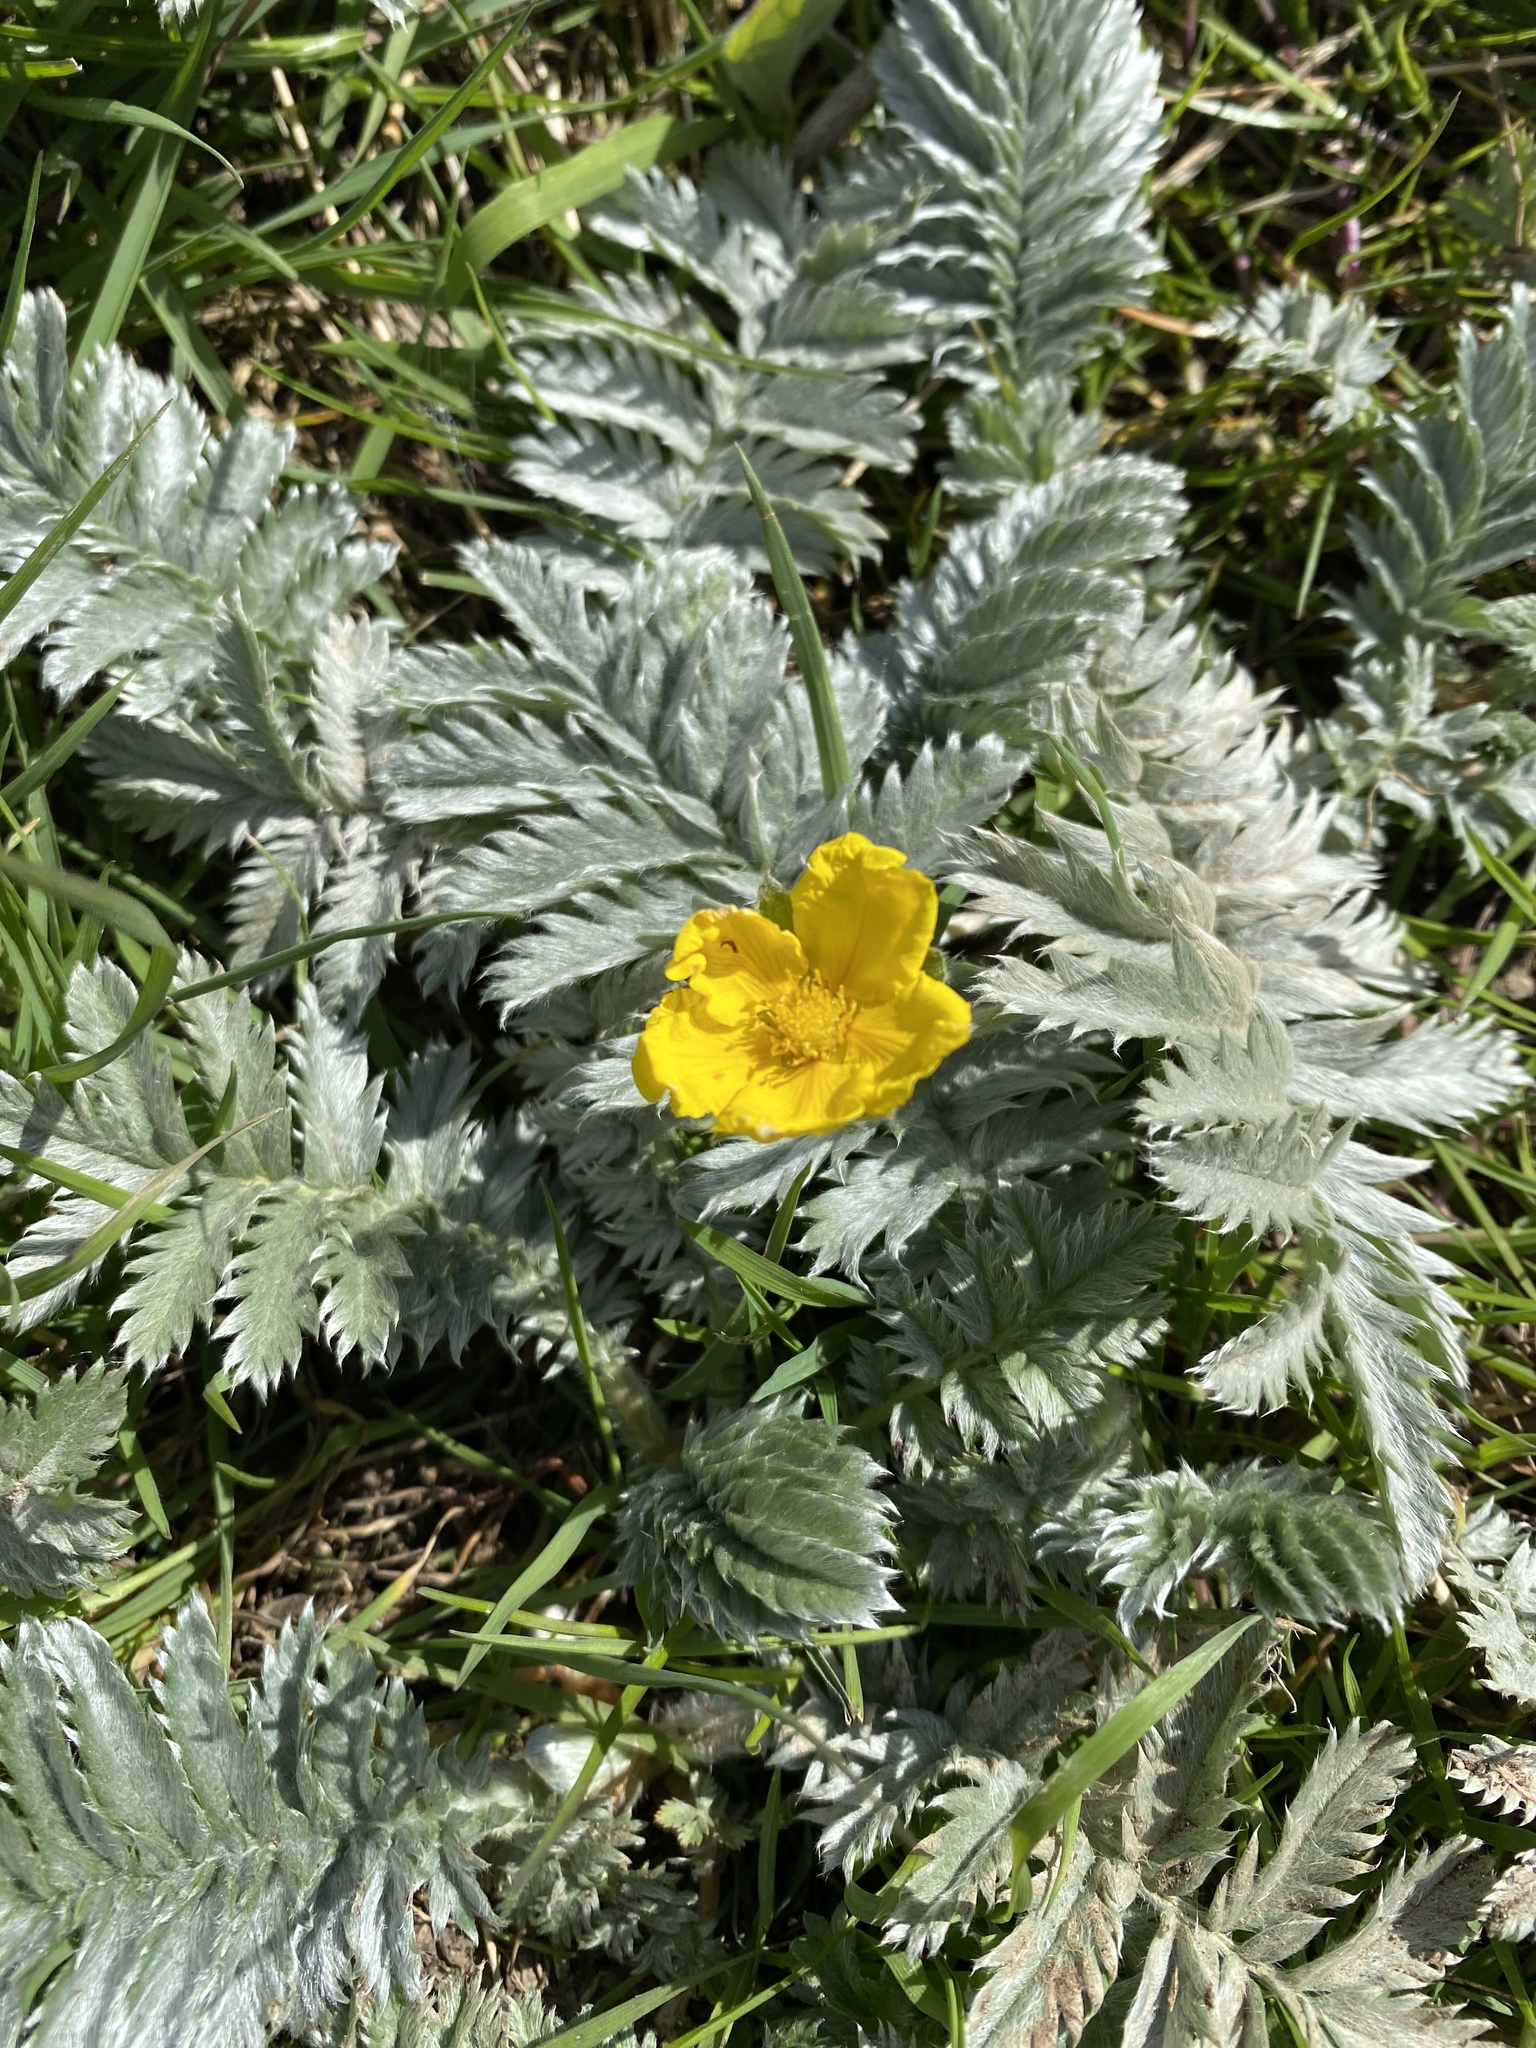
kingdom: Plantae
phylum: Tracheophyta
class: Magnoliopsida
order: Rosales
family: Rosaceae
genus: Argentina
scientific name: Argentina anserina
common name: Common silverweed
